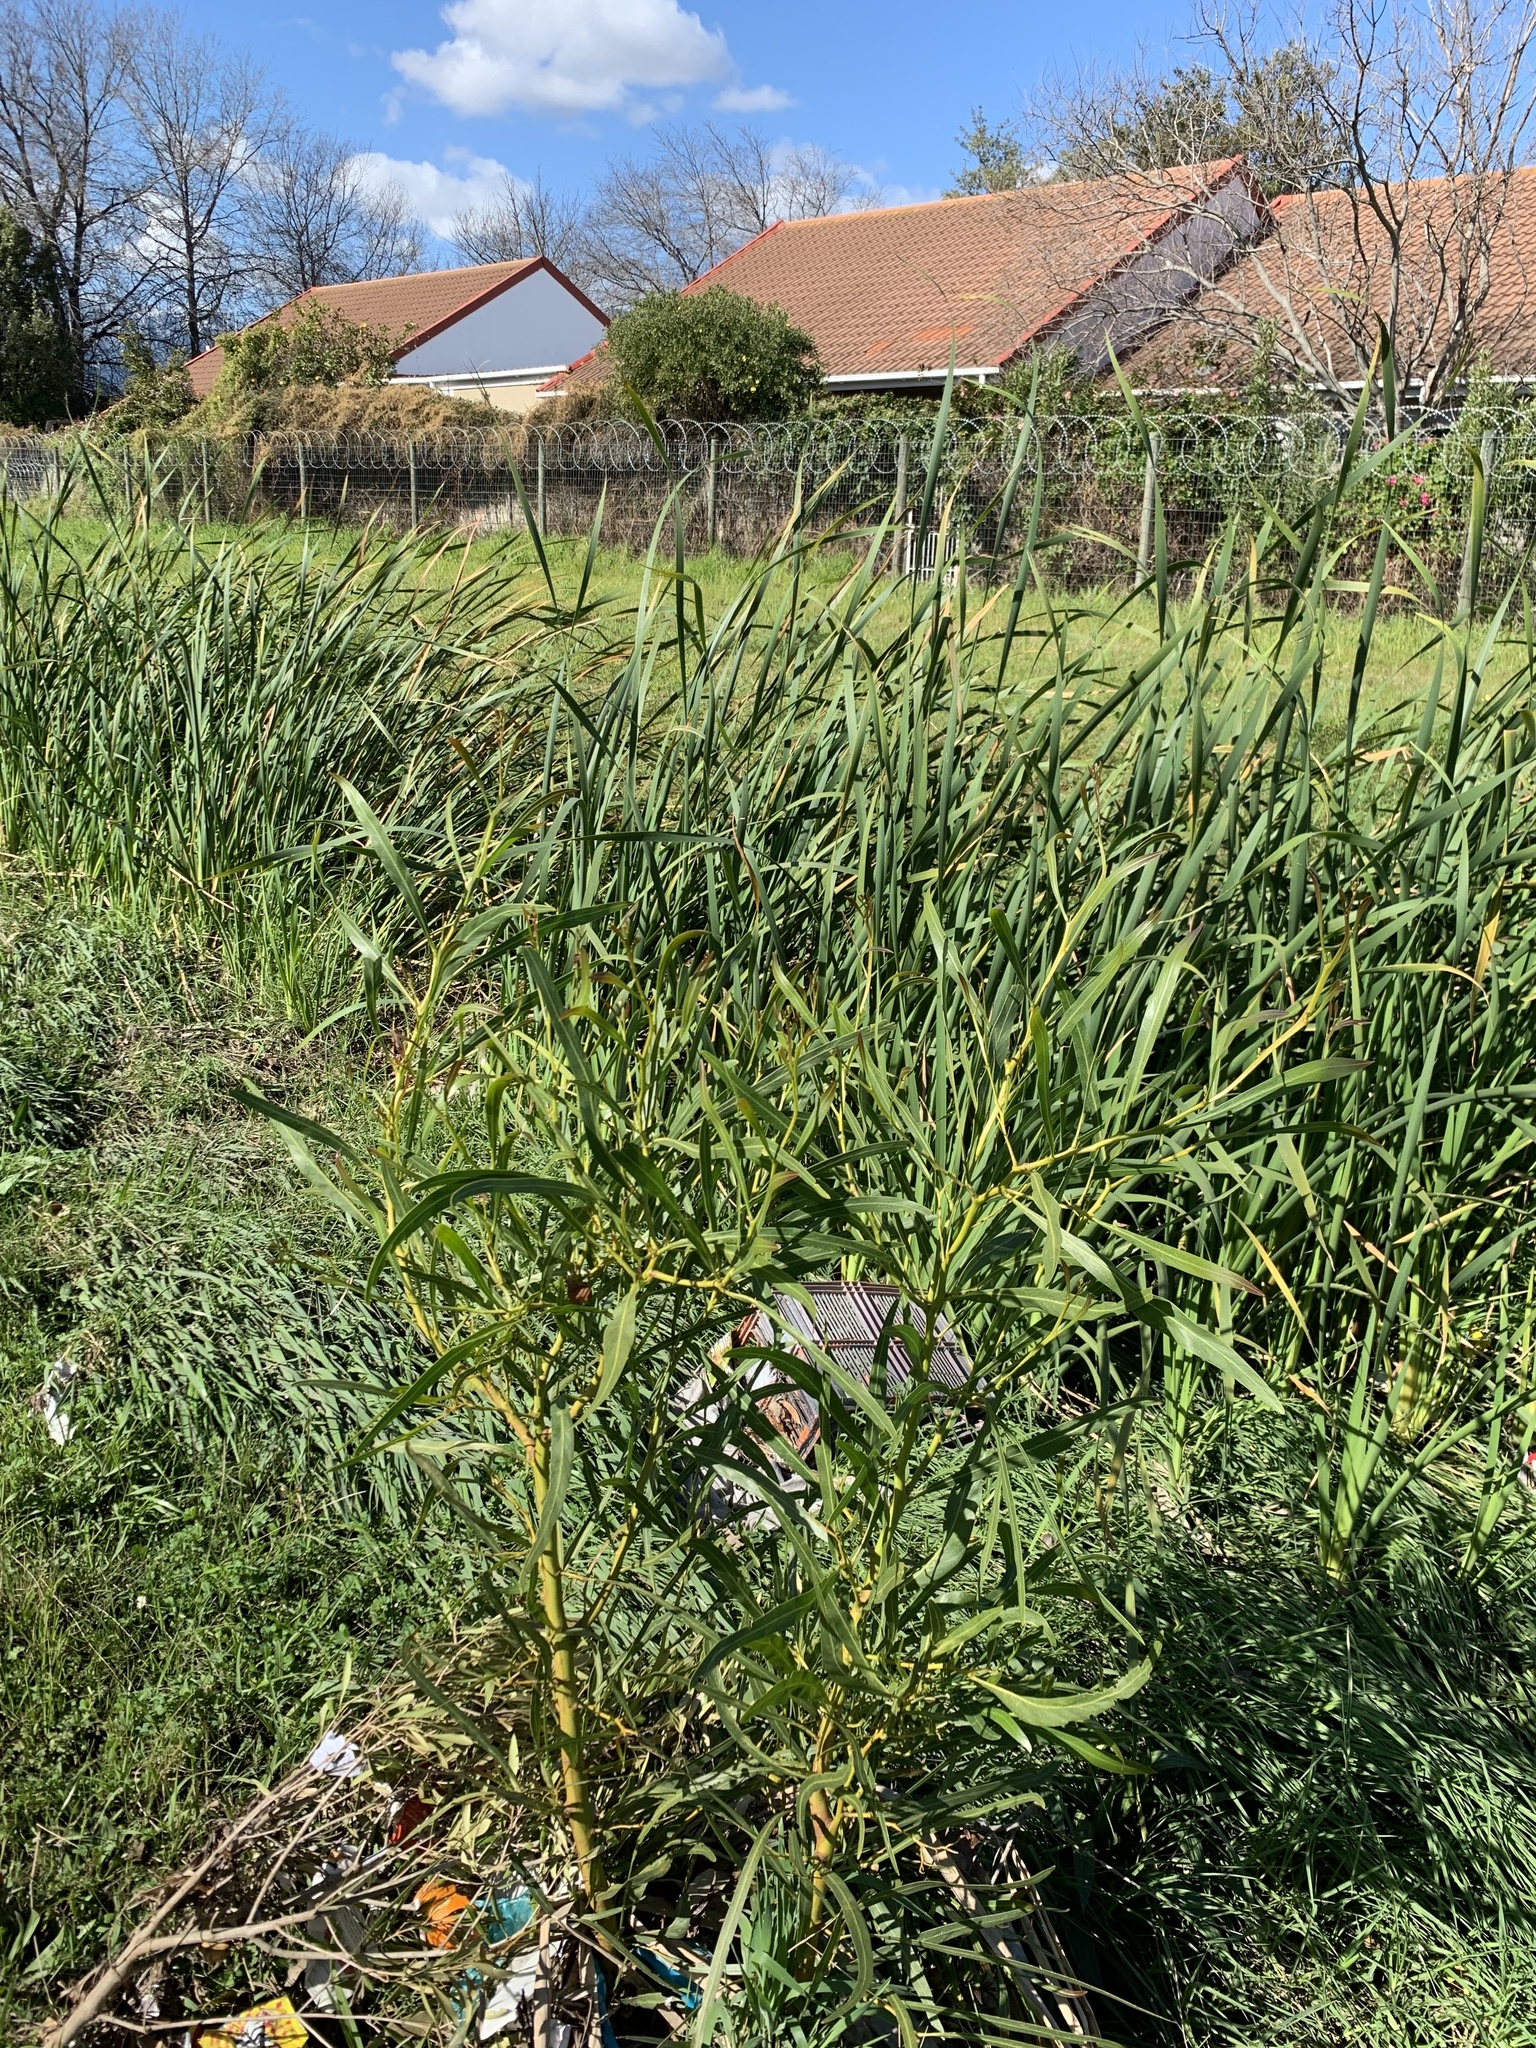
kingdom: Plantae
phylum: Tracheophyta
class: Magnoliopsida
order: Fabales
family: Fabaceae
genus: Acacia
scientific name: Acacia saligna
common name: Orange wattle
